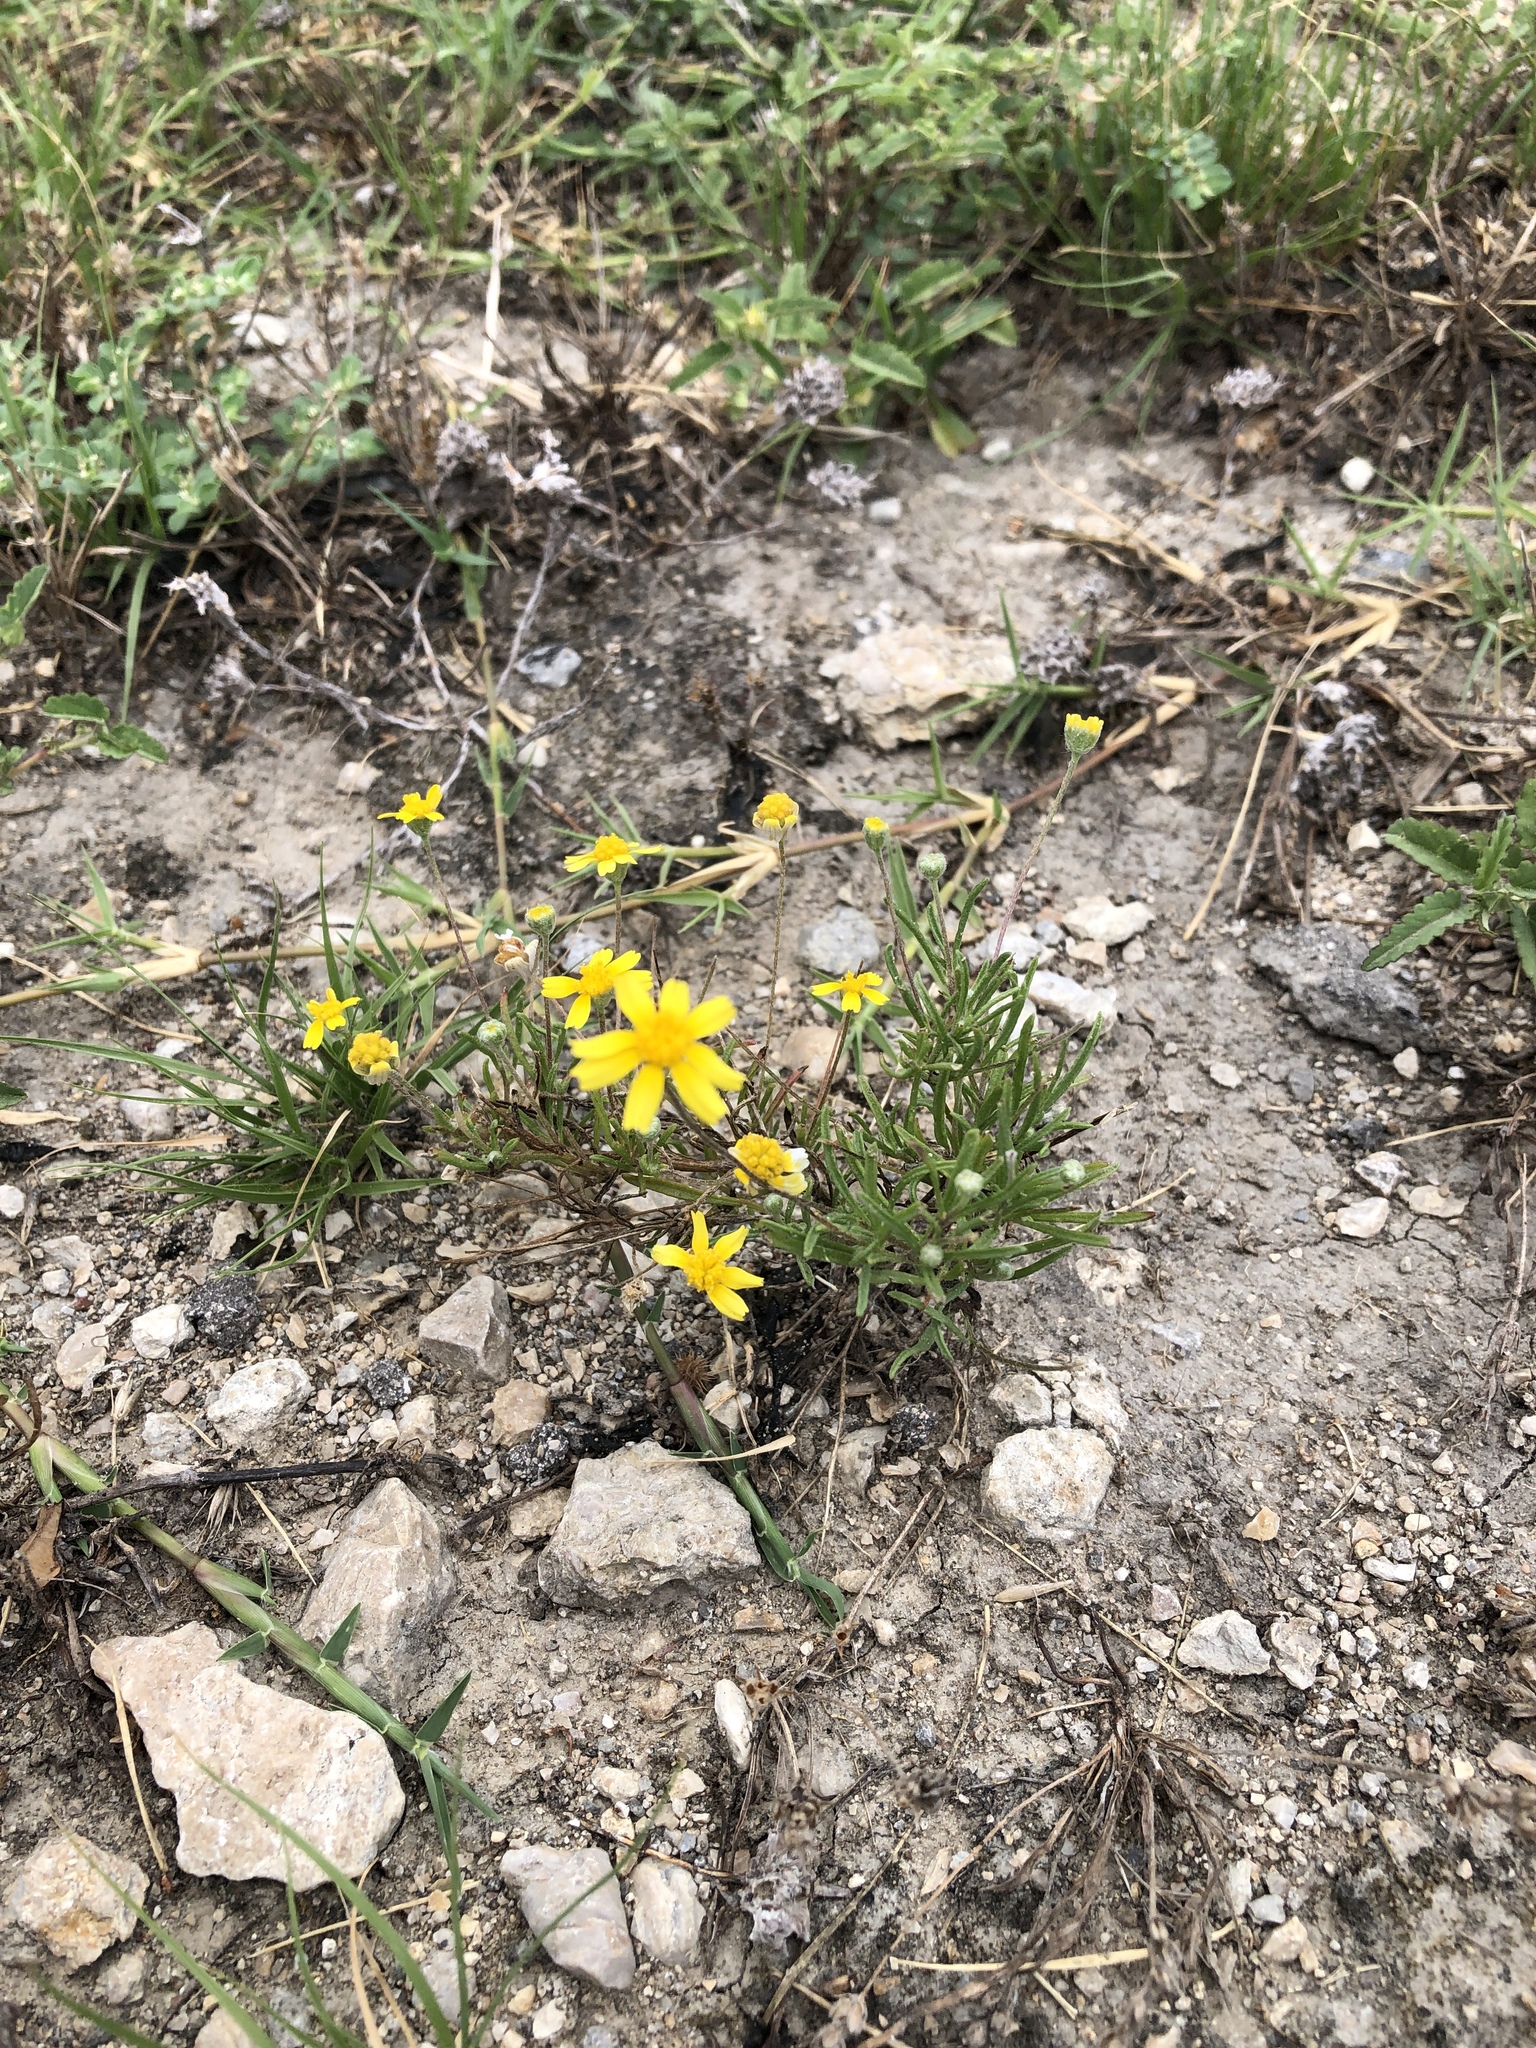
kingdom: Plantae
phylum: Tracheophyta
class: Magnoliopsida
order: Asterales
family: Asteraceae
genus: Tetraneuris
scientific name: Tetraneuris linearifolia
